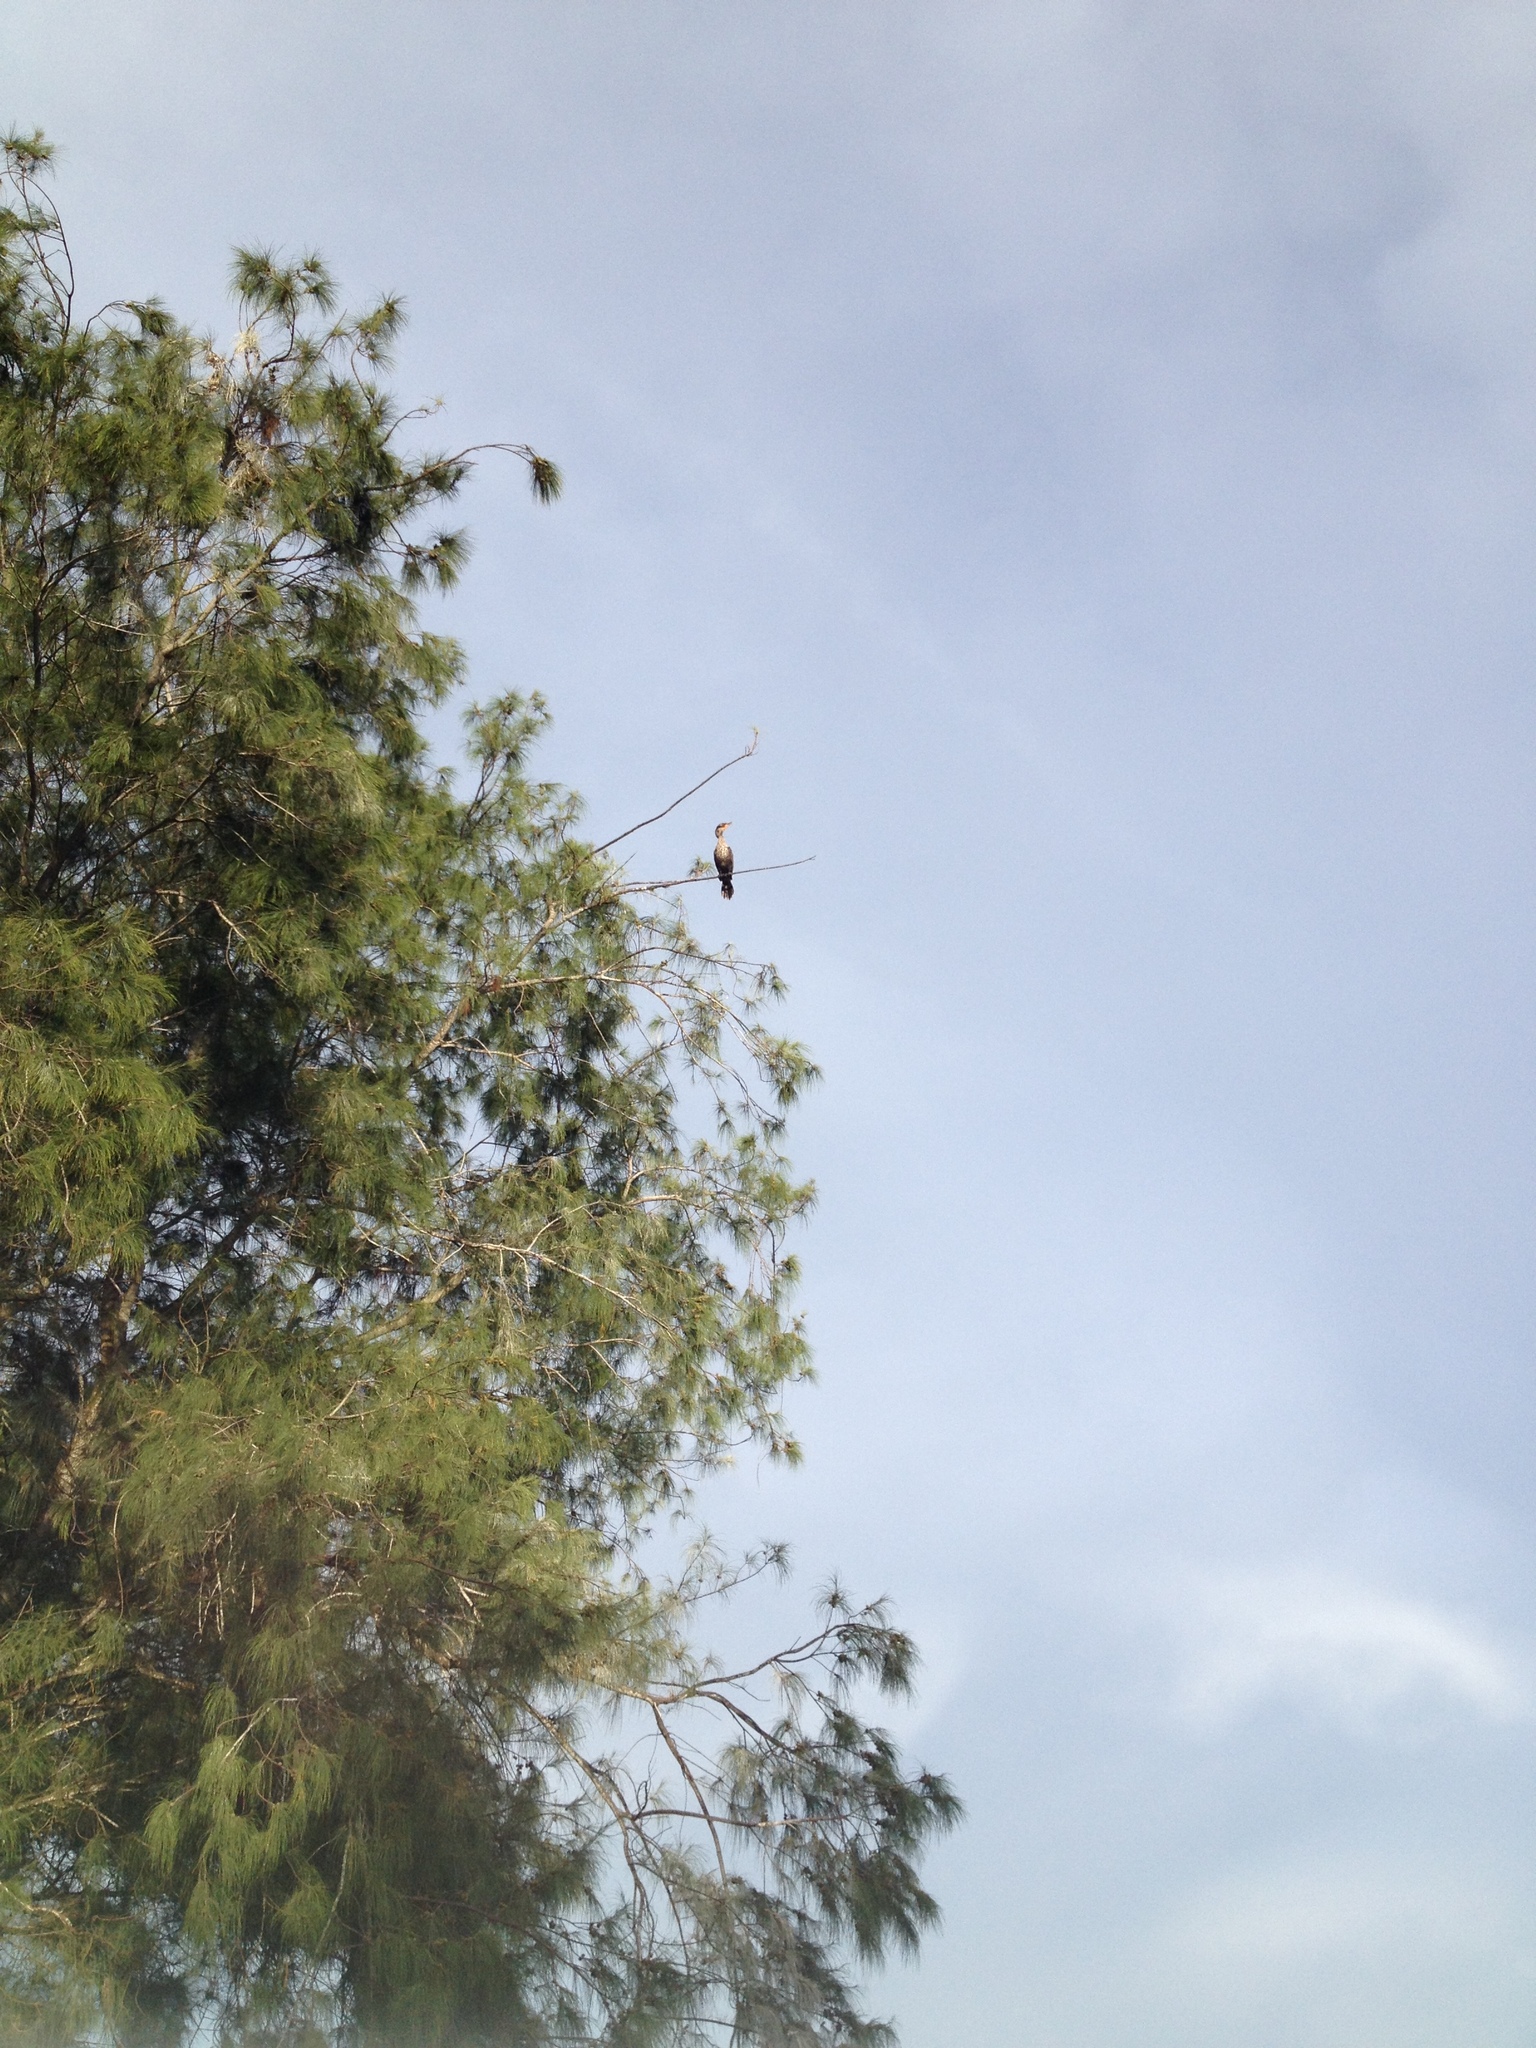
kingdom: Animalia
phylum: Chordata
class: Aves
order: Suliformes
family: Phalacrocoracidae
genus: Phalacrocorax
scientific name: Phalacrocorax auritus
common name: Double-crested cormorant
